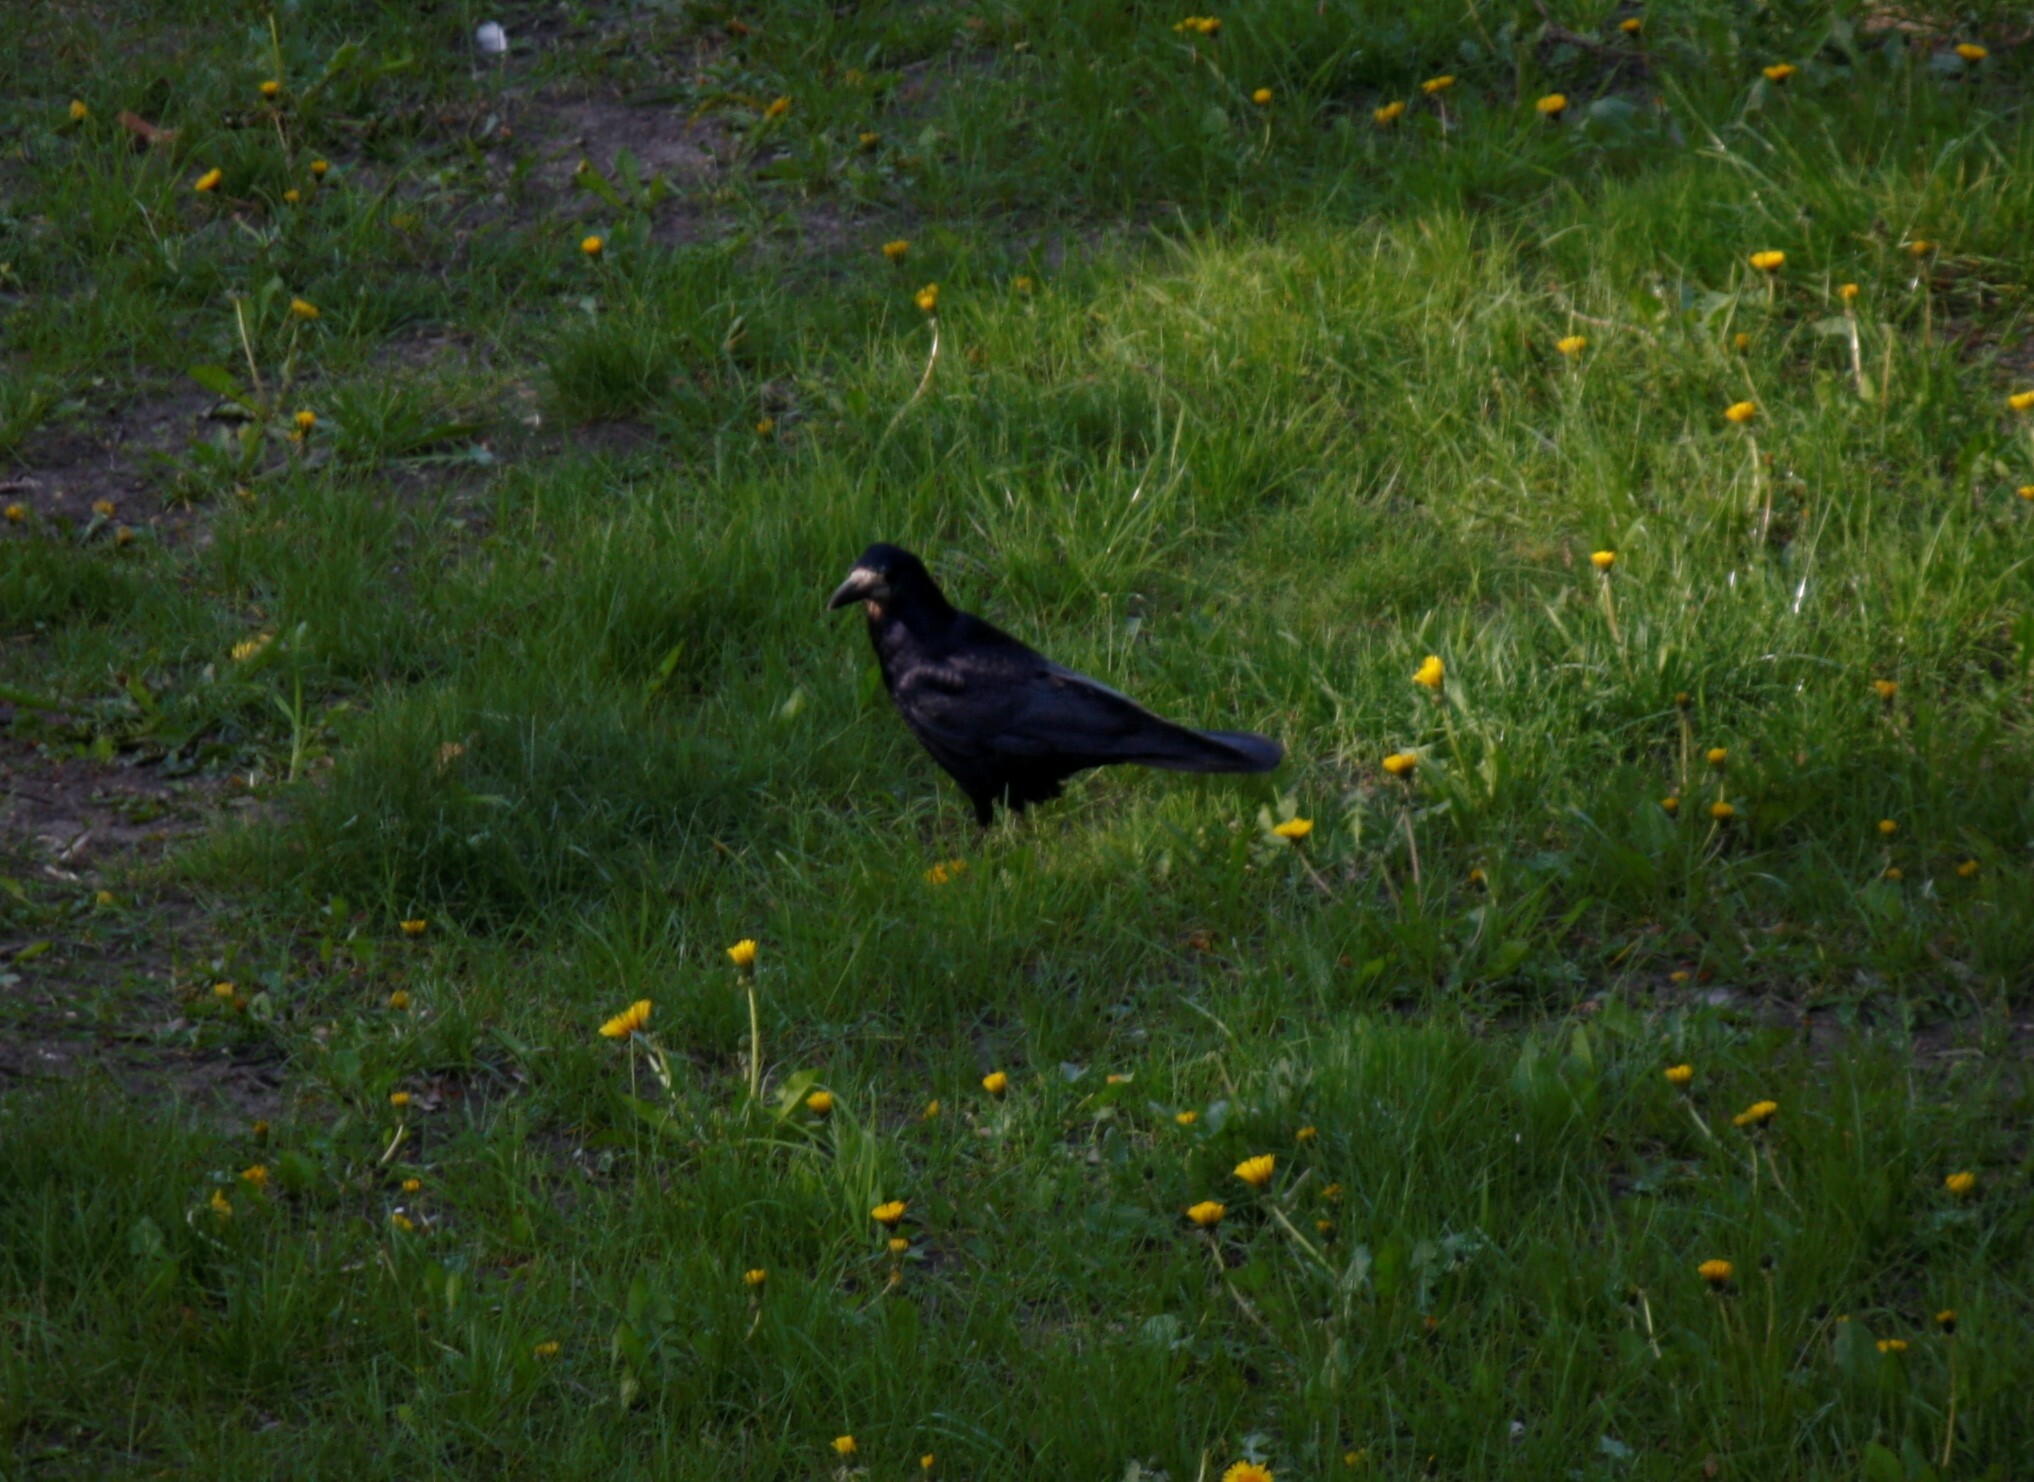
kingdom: Animalia
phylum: Chordata
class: Aves
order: Passeriformes
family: Corvidae
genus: Corvus
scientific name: Corvus frugilegus
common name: Rook
